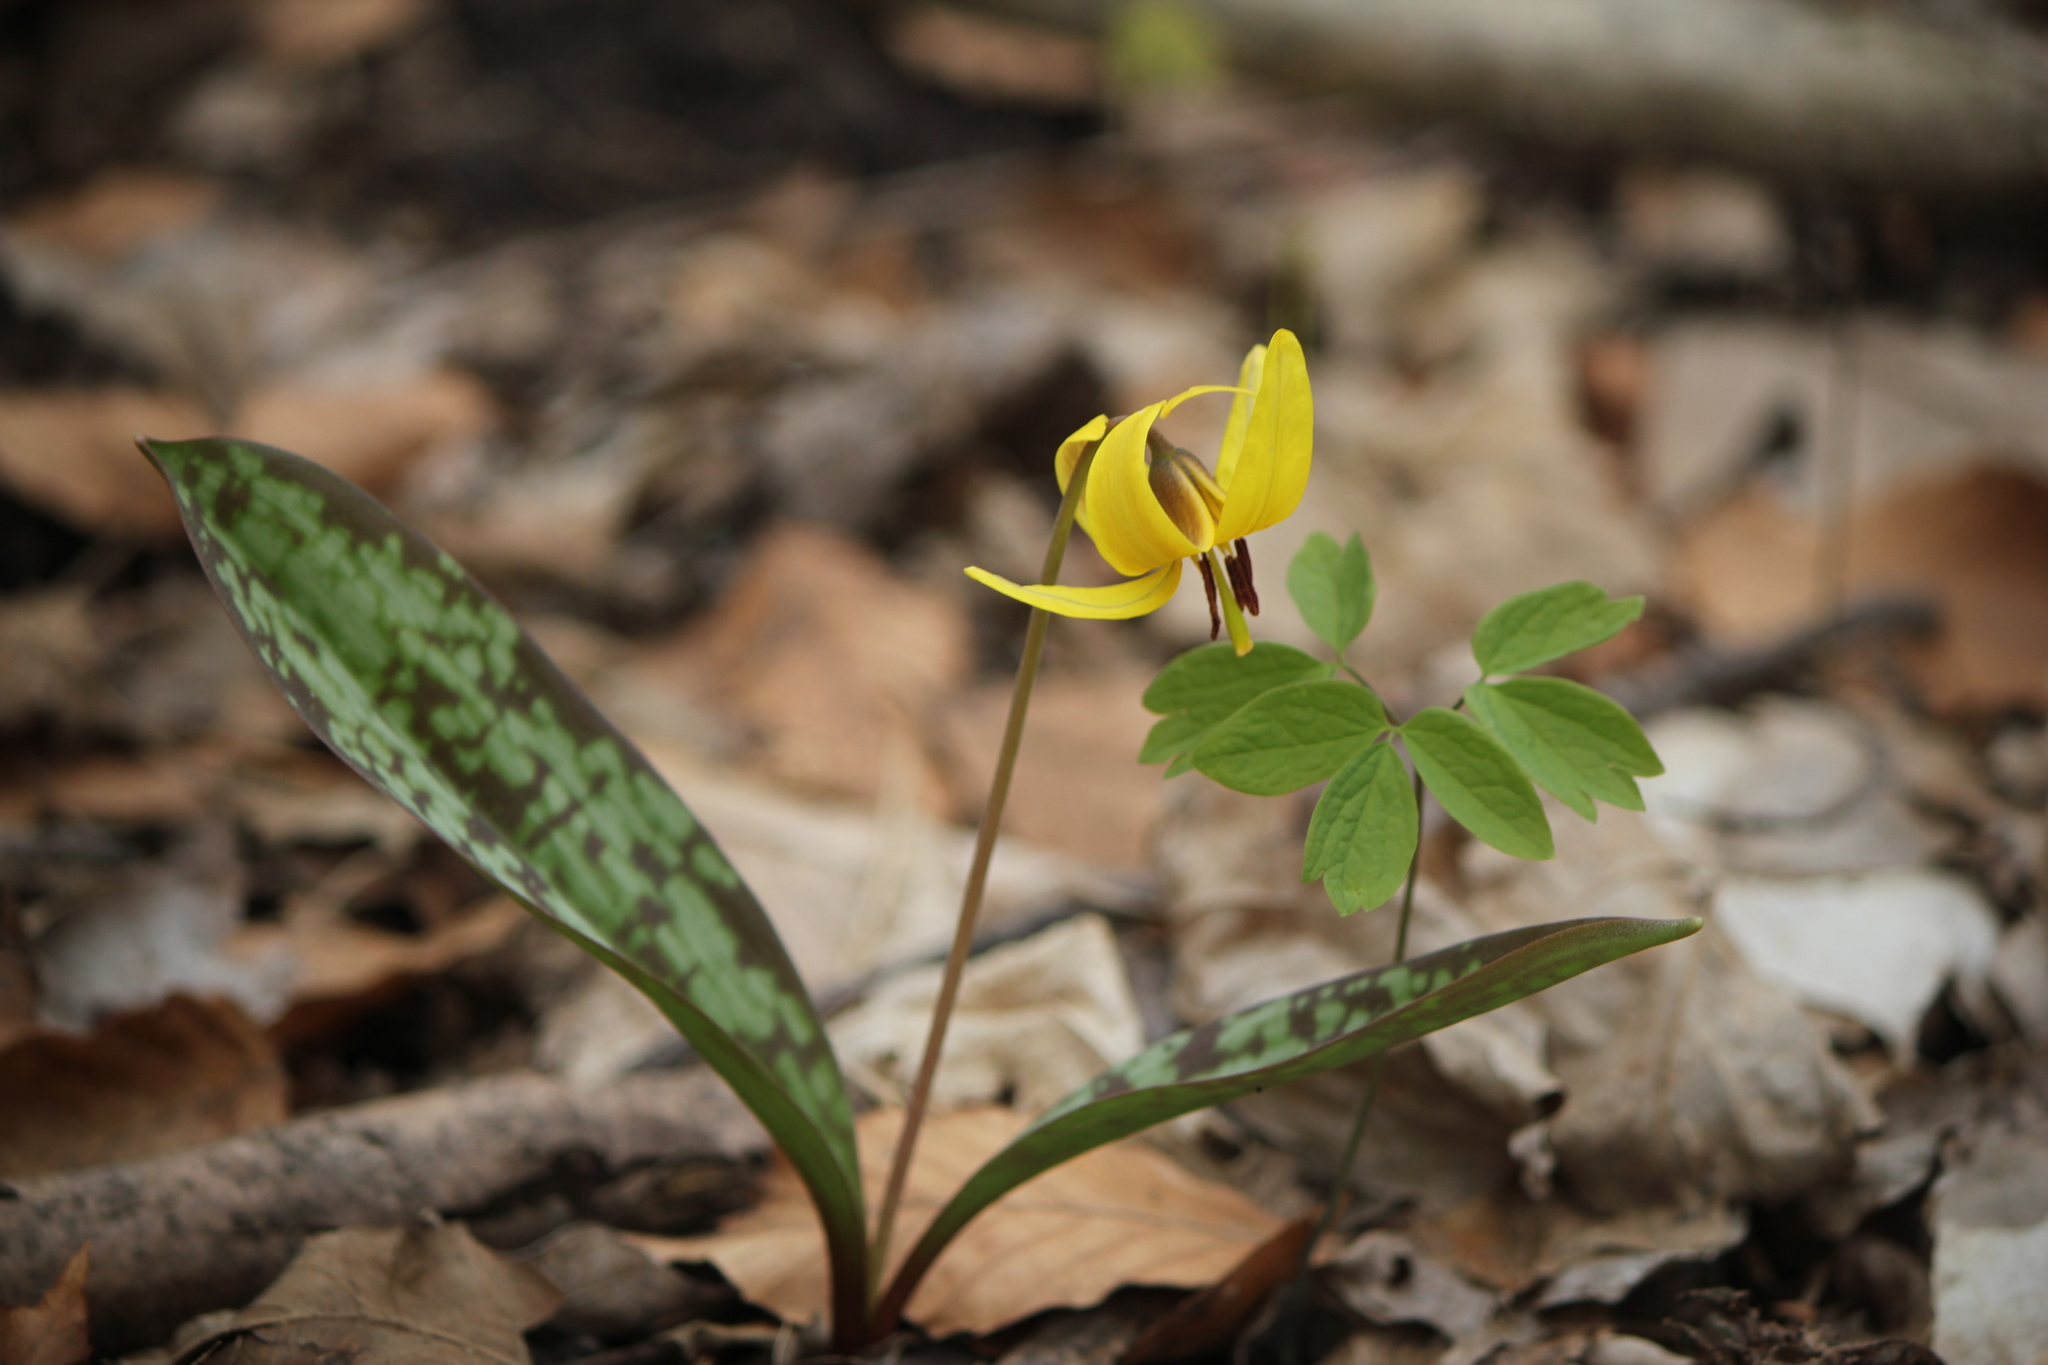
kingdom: Plantae
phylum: Tracheophyta
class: Liliopsida
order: Liliales
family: Liliaceae
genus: Erythronium
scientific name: Erythronium americanum
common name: Yellow adder's-tongue
